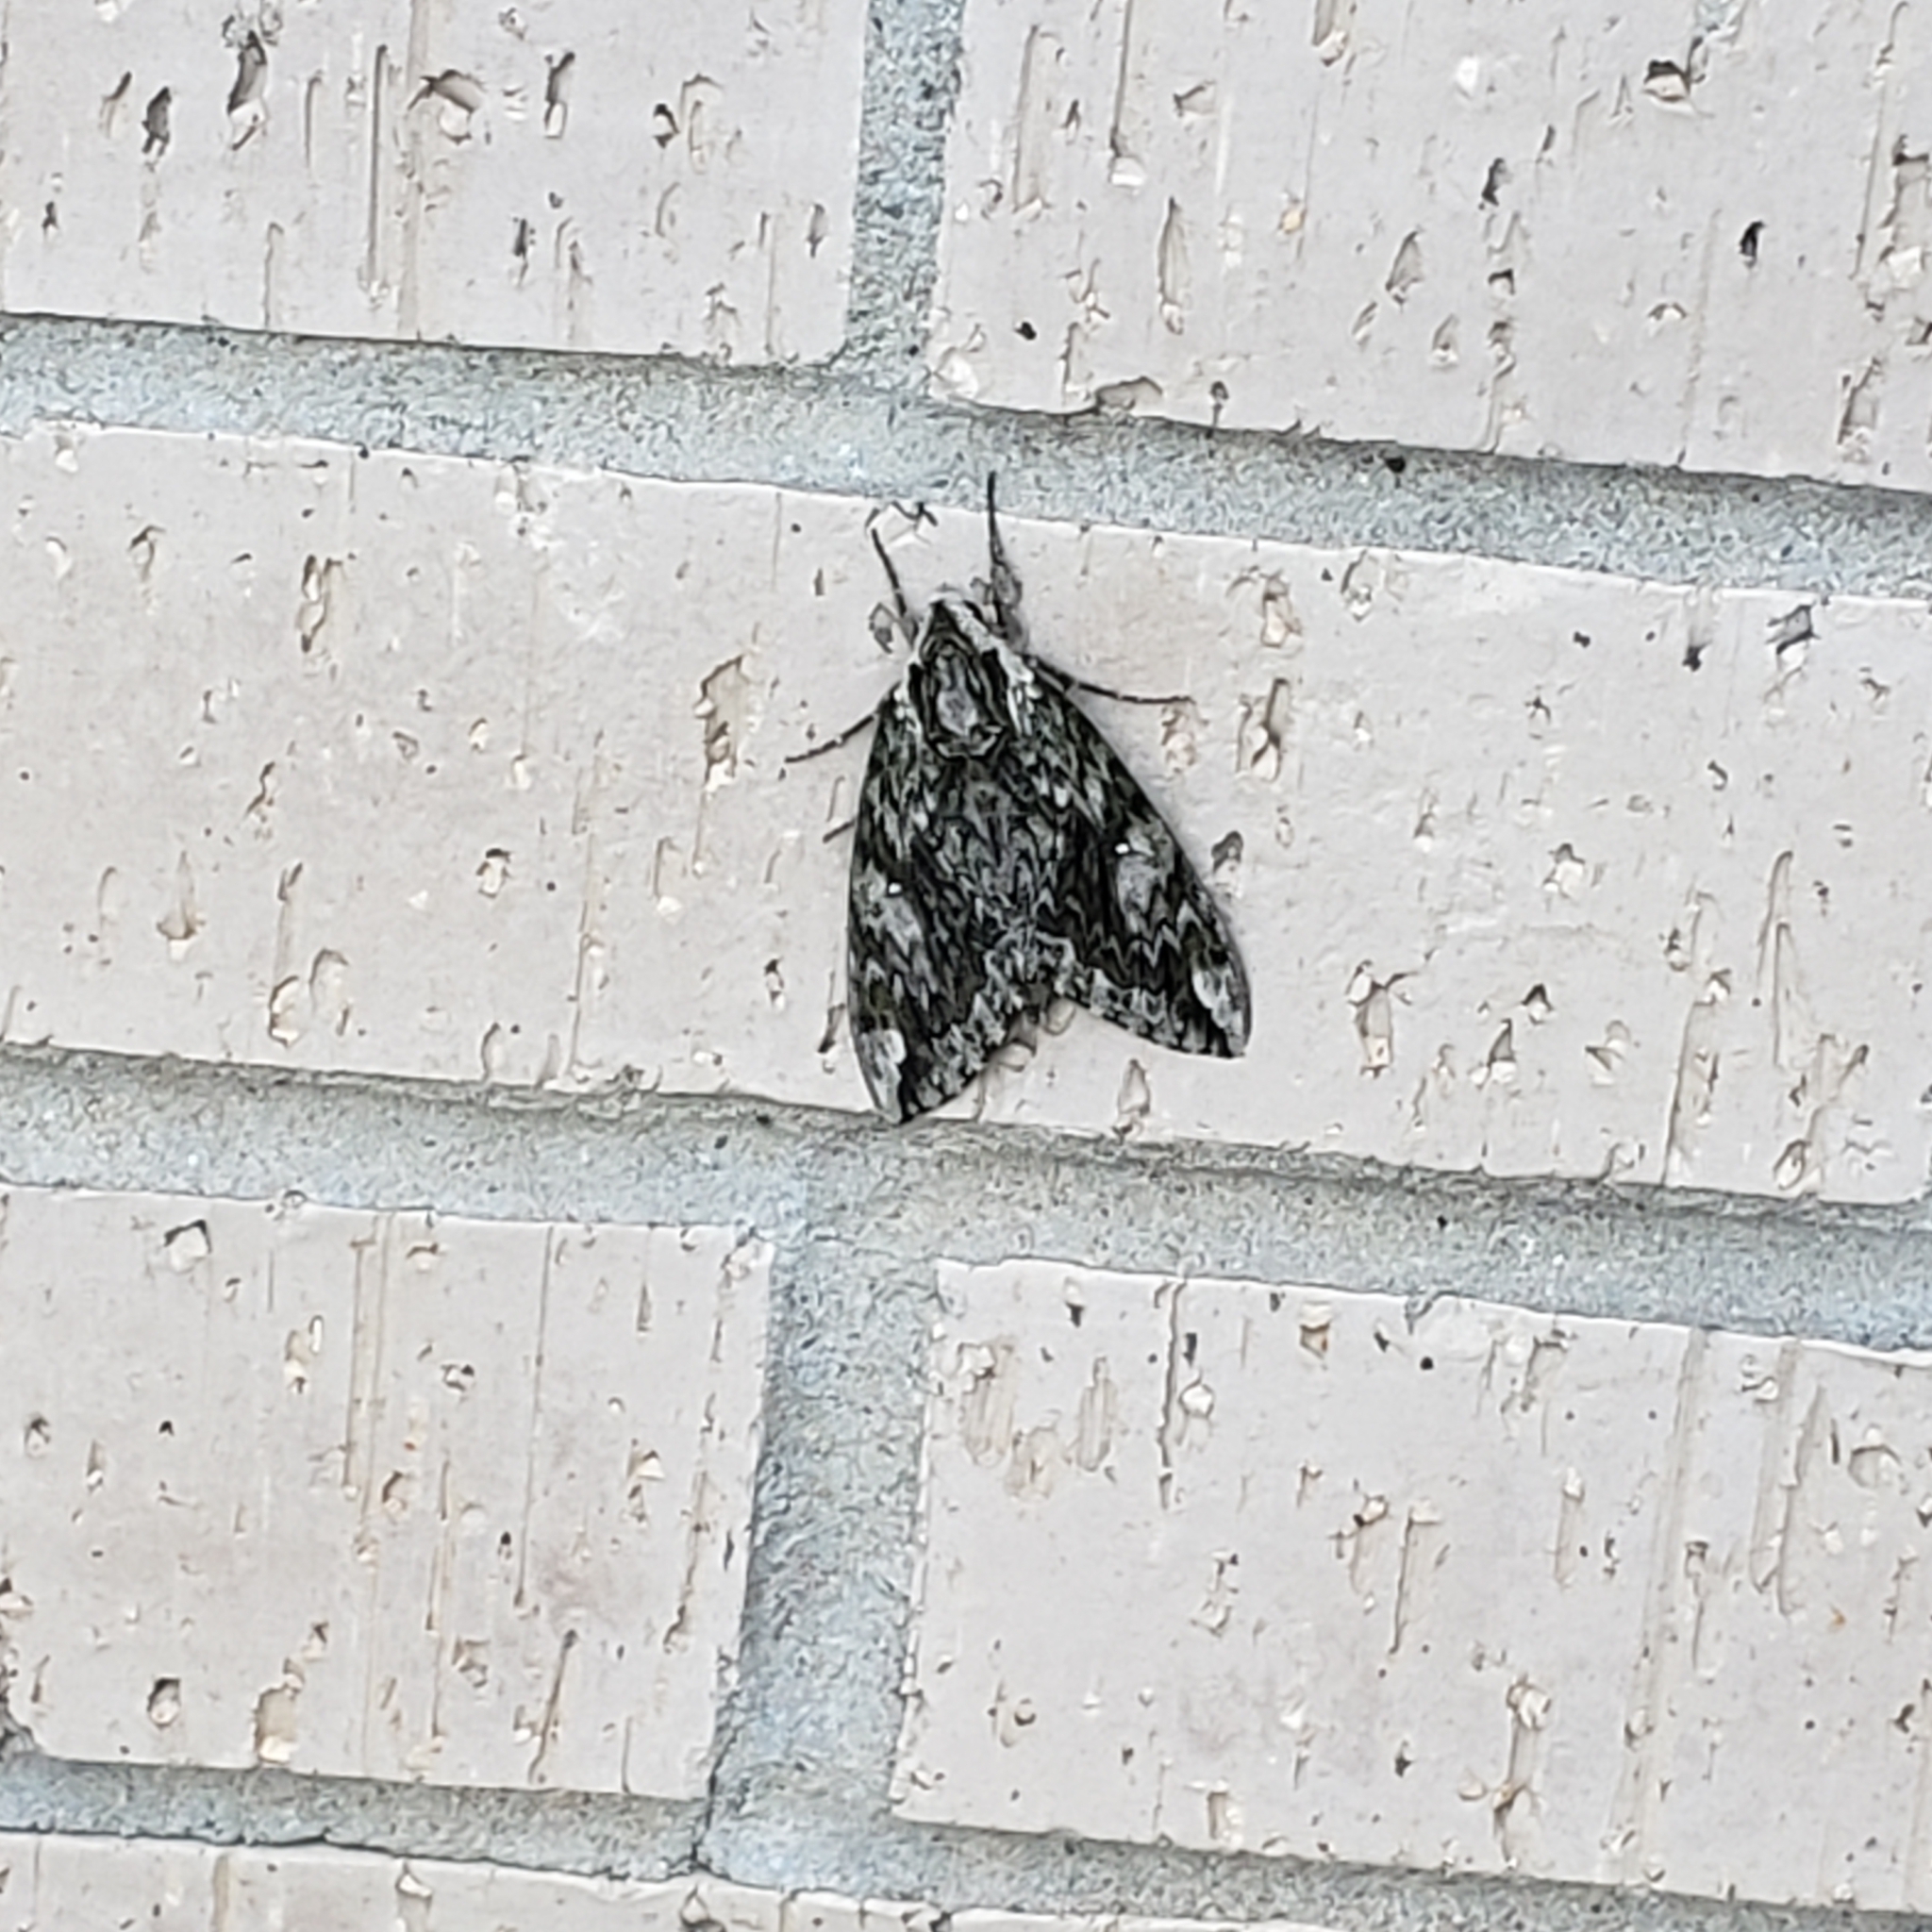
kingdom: Animalia
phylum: Arthropoda
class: Insecta
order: Lepidoptera
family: Sphingidae
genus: Ceratomia
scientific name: Ceratomia hageni
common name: Hagen's sphinx
